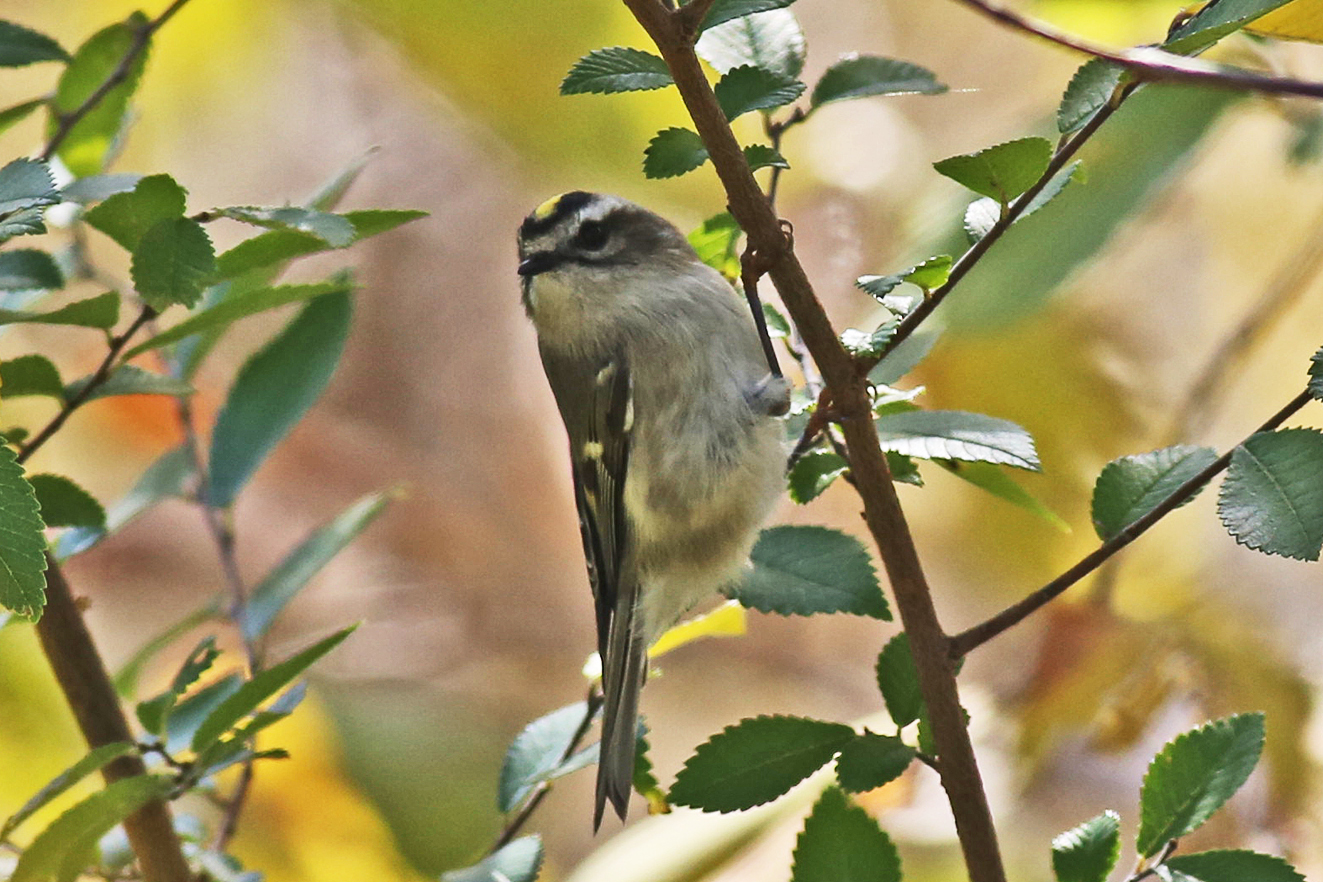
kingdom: Animalia
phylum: Chordata
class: Aves
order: Passeriformes
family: Regulidae
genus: Regulus
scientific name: Regulus satrapa
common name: Golden-crowned kinglet
